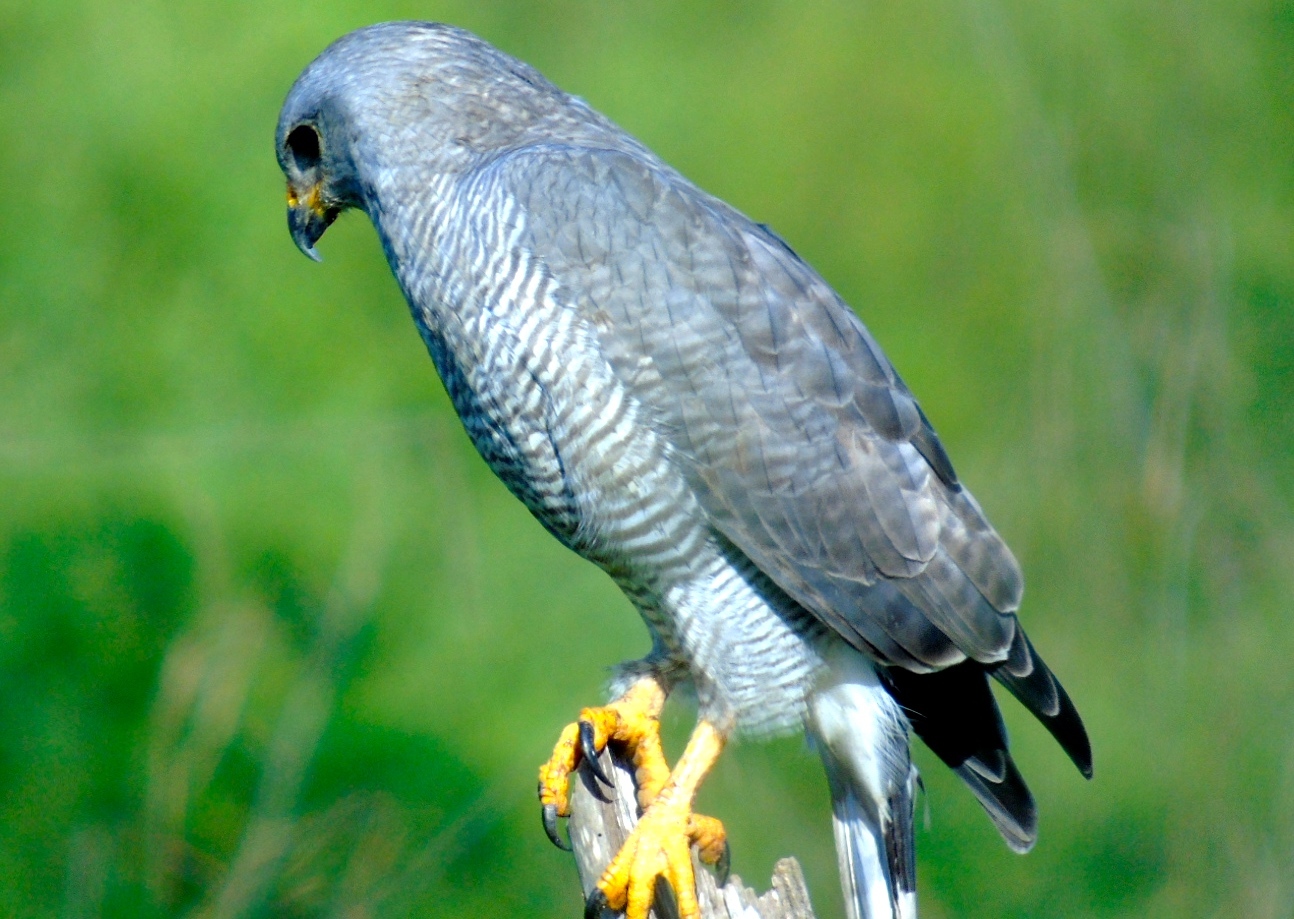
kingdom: Animalia
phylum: Chordata
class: Aves
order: Accipitriformes
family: Accipitridae
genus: Buteo
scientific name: Buteo nitidus
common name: Grey-lined hawk
